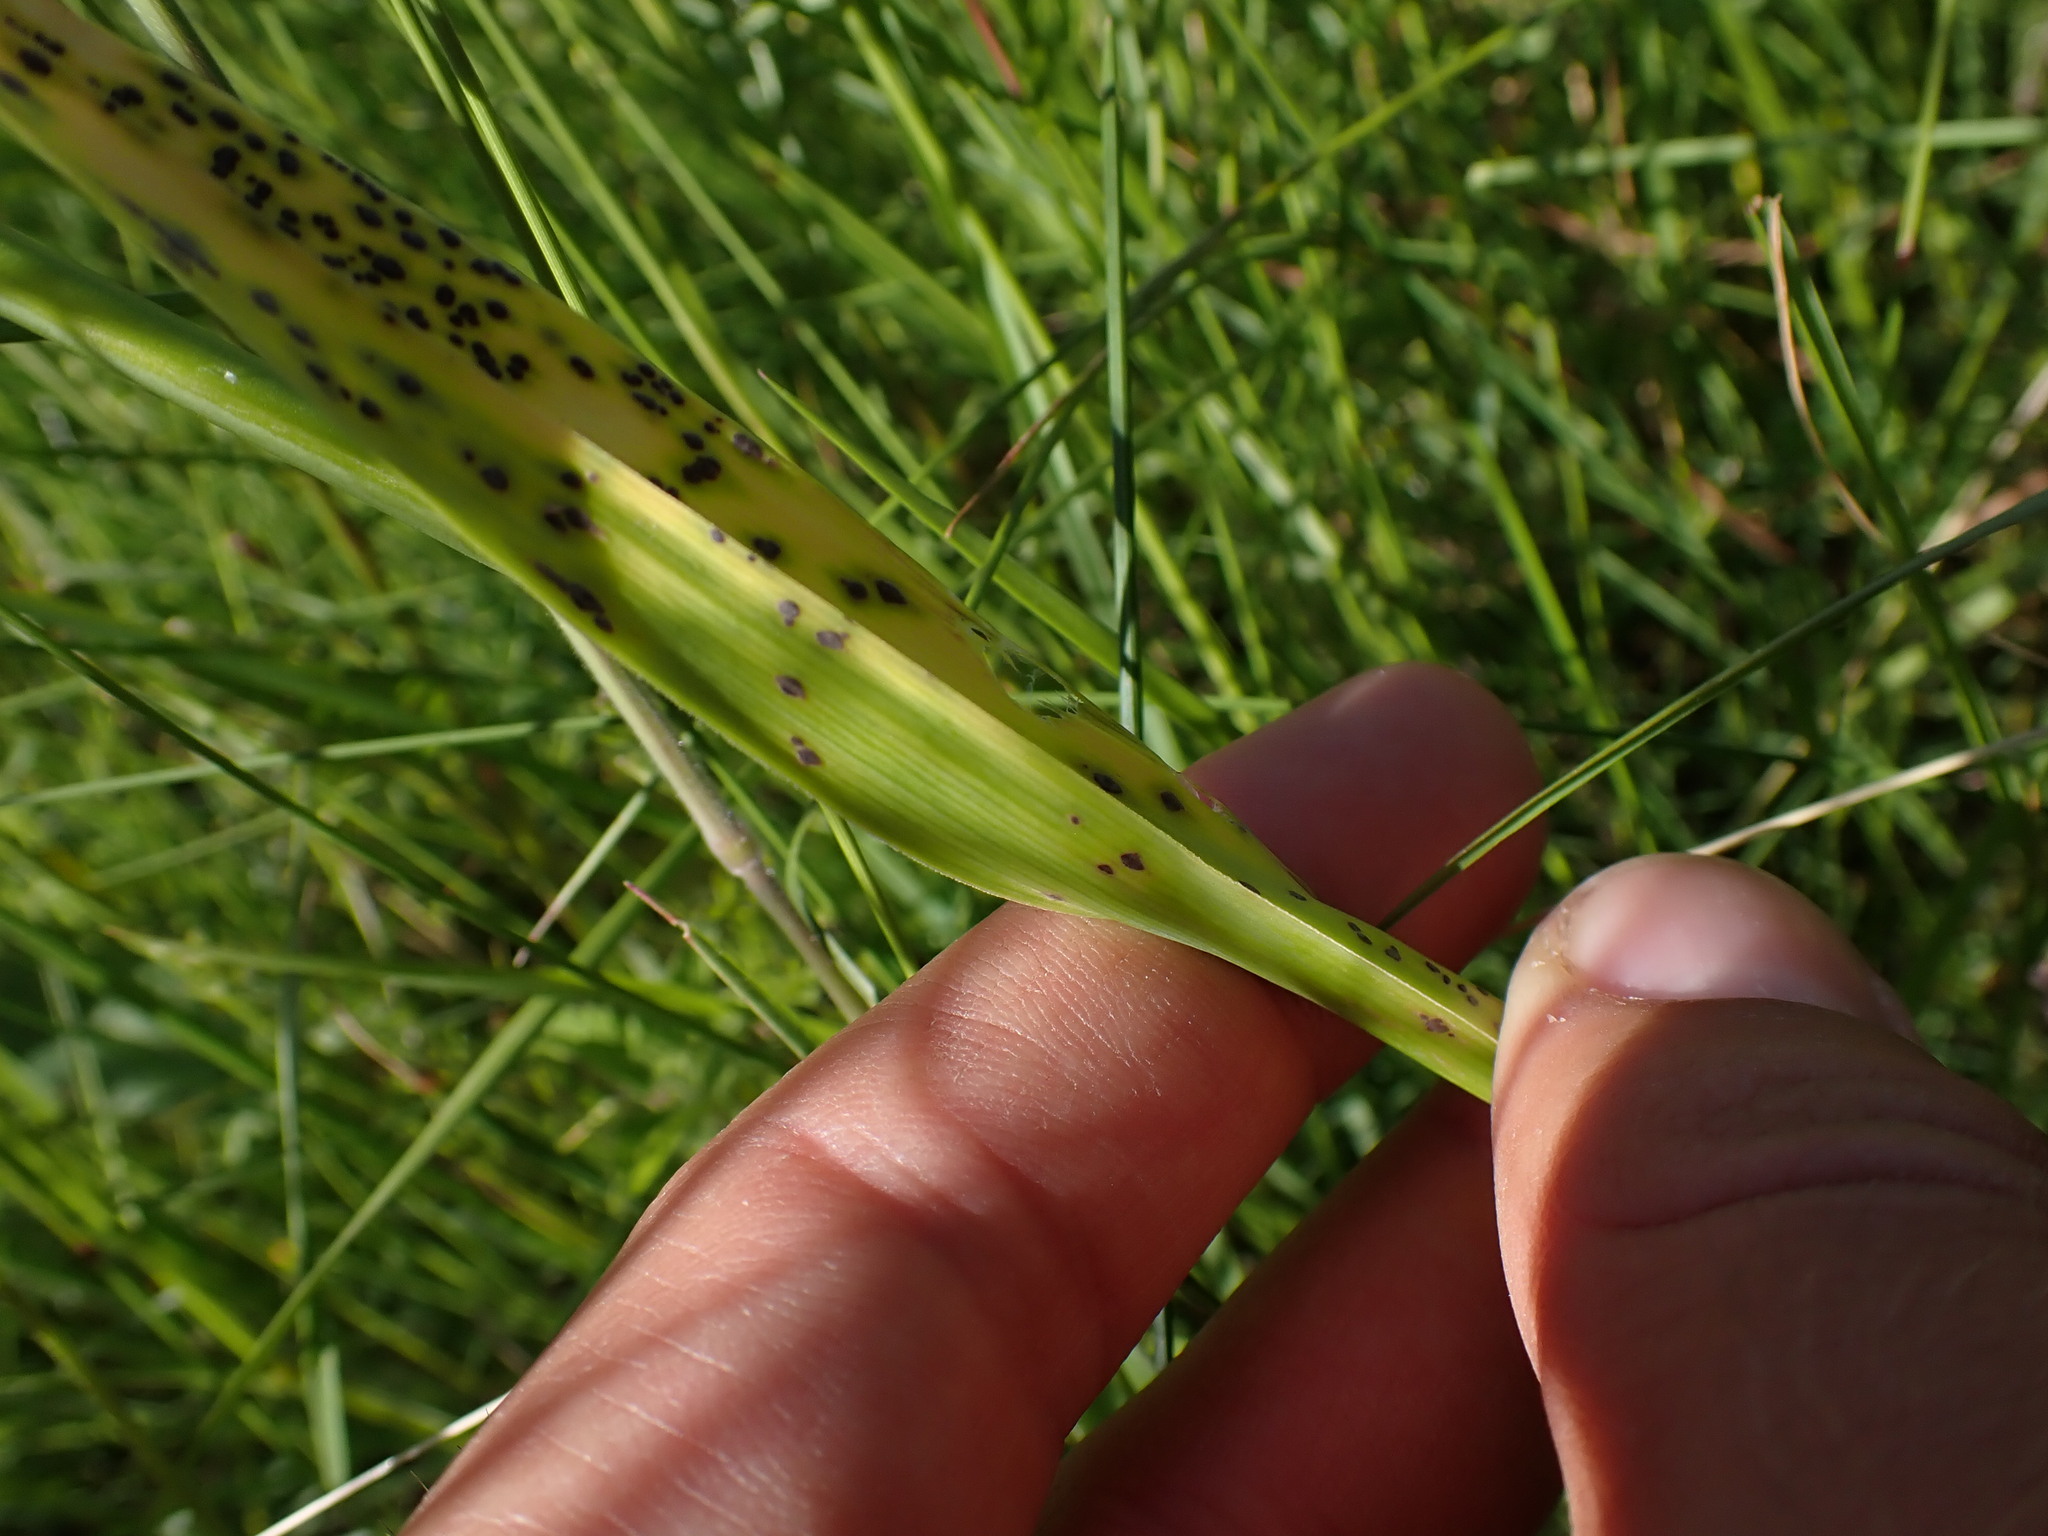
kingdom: Plantae
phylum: Tracheophyta
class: Liliopsida
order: Asparagales
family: Amaryllidaceae
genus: Allium
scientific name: Allium scorodoprasum
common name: Sand leek
